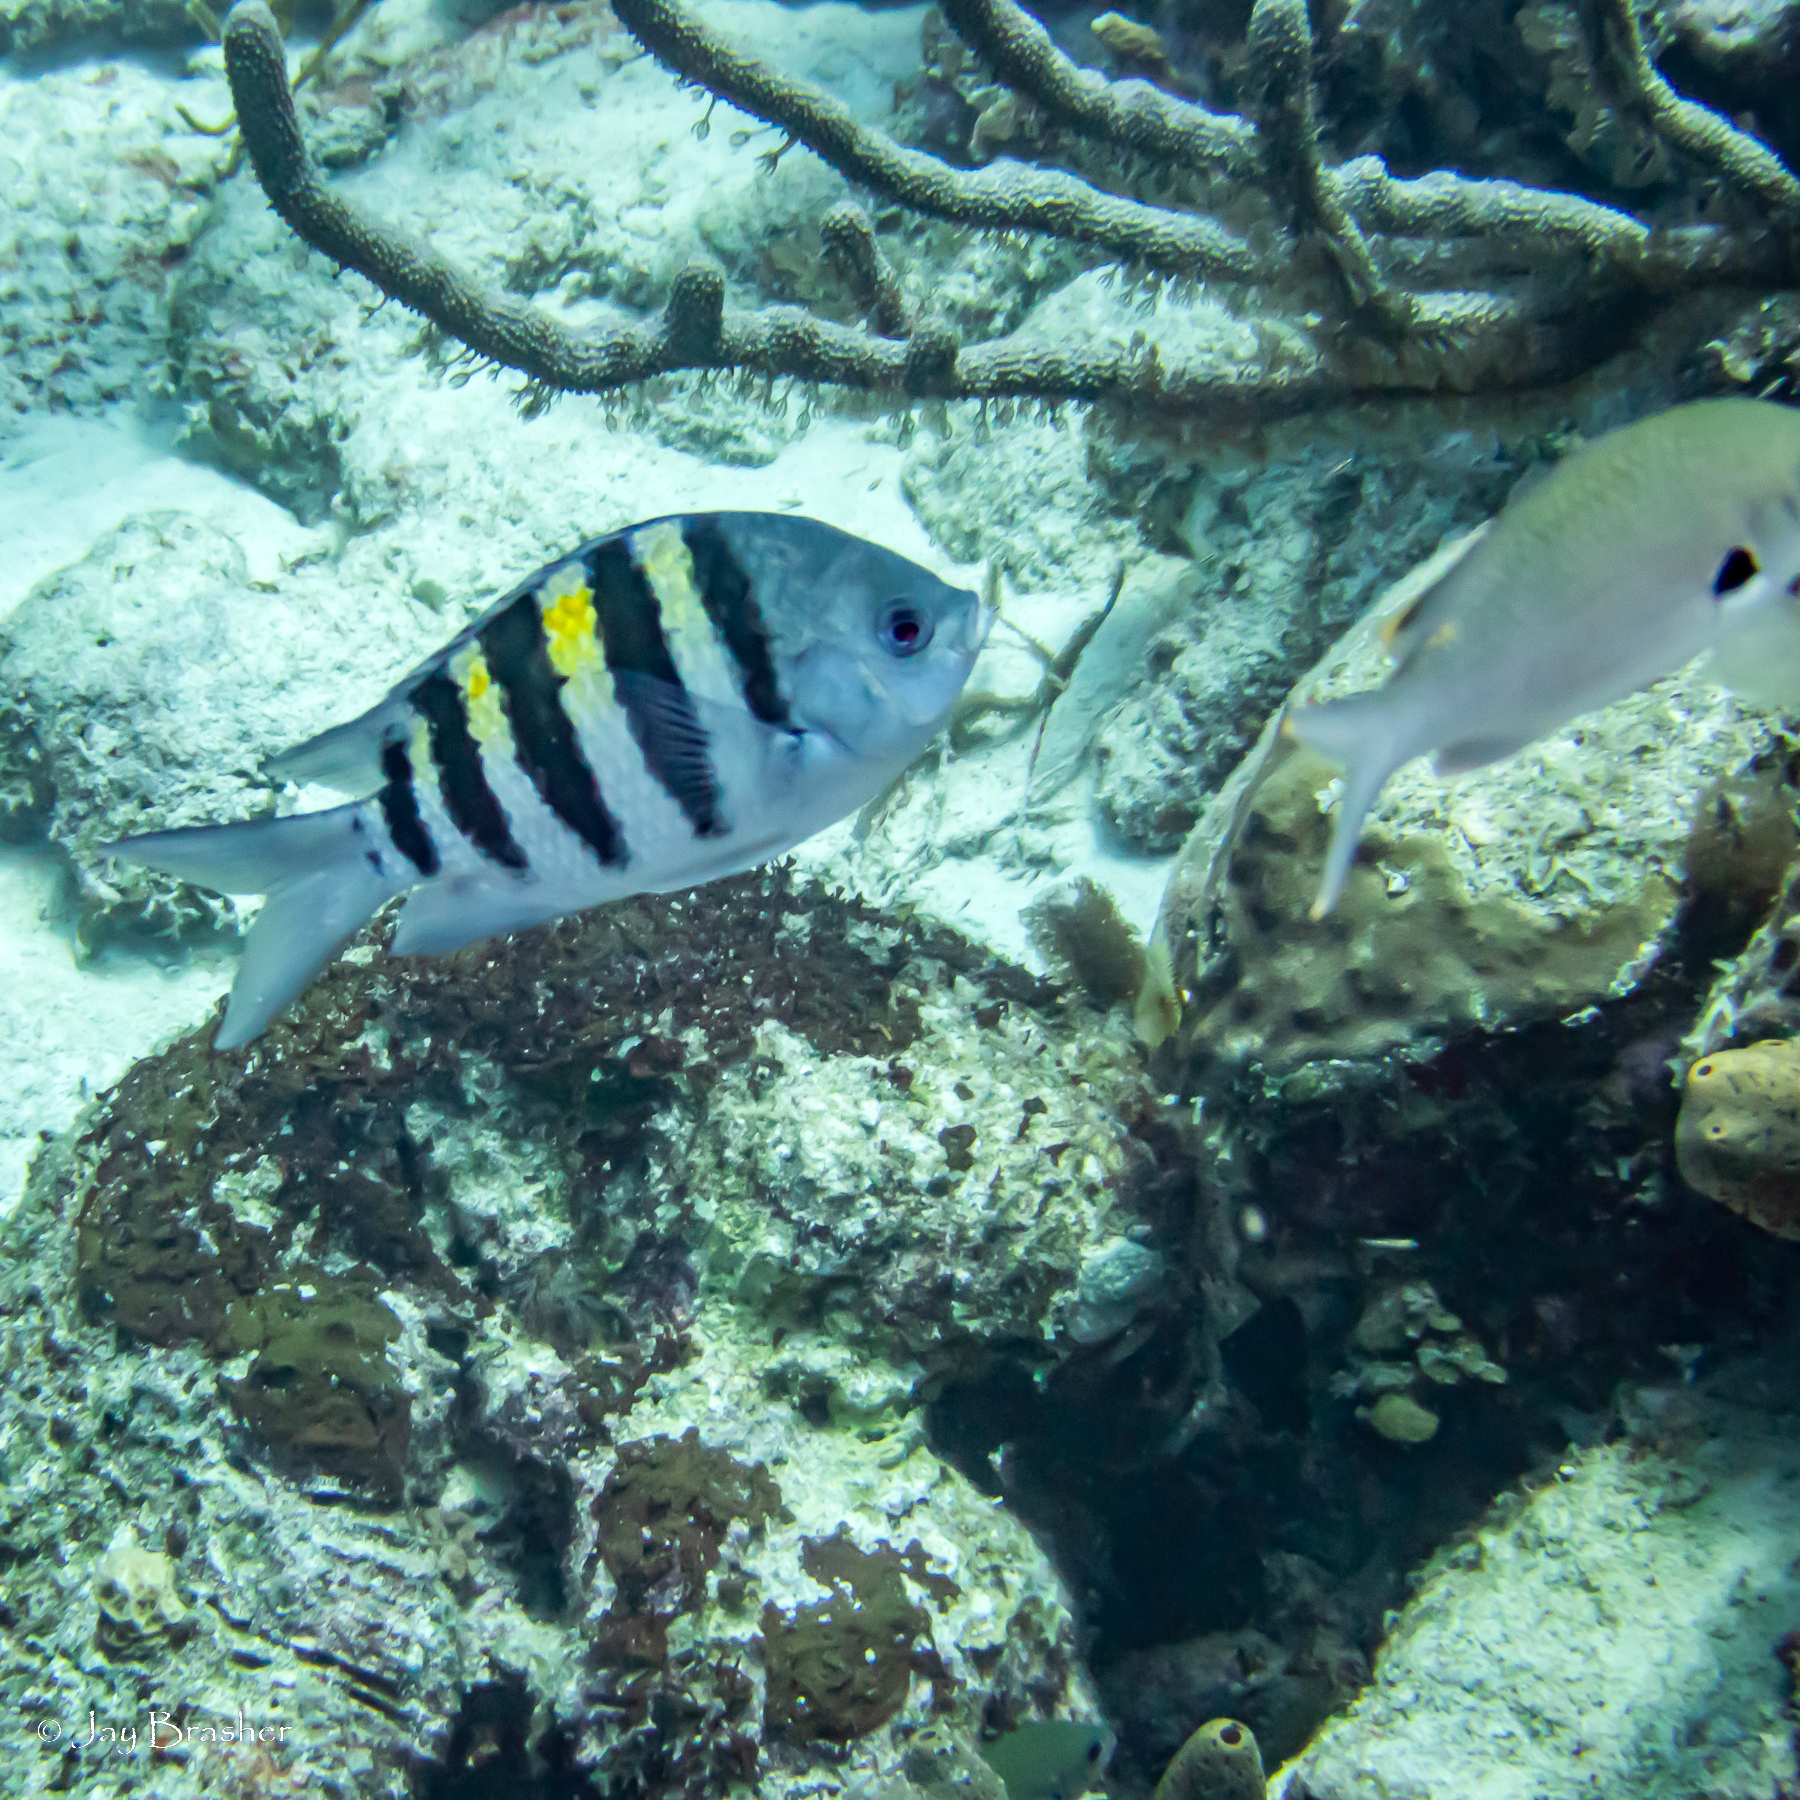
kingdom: Animalia
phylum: Chordata
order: Perciformes
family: Pomacentridae
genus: Chromis
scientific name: Chromis multilineata
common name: Brown chromis
